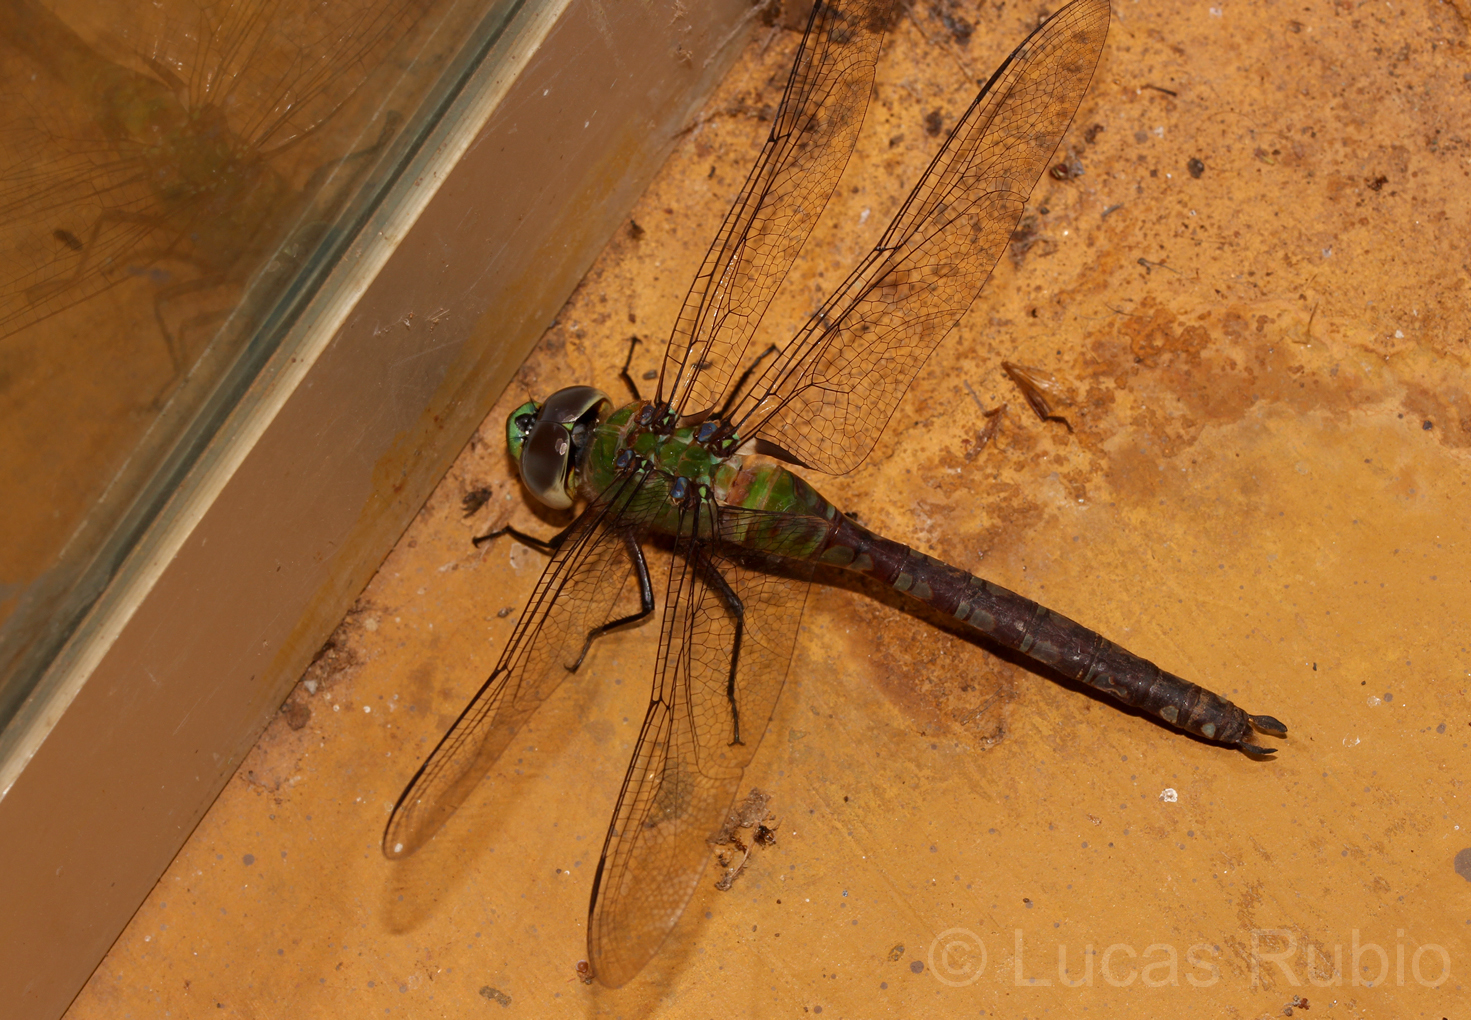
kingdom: Animalia
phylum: Arthropoda
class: Insecta
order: Odonata
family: Aeshnidae
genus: Anax
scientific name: Anax amazili
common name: Amazon darner
